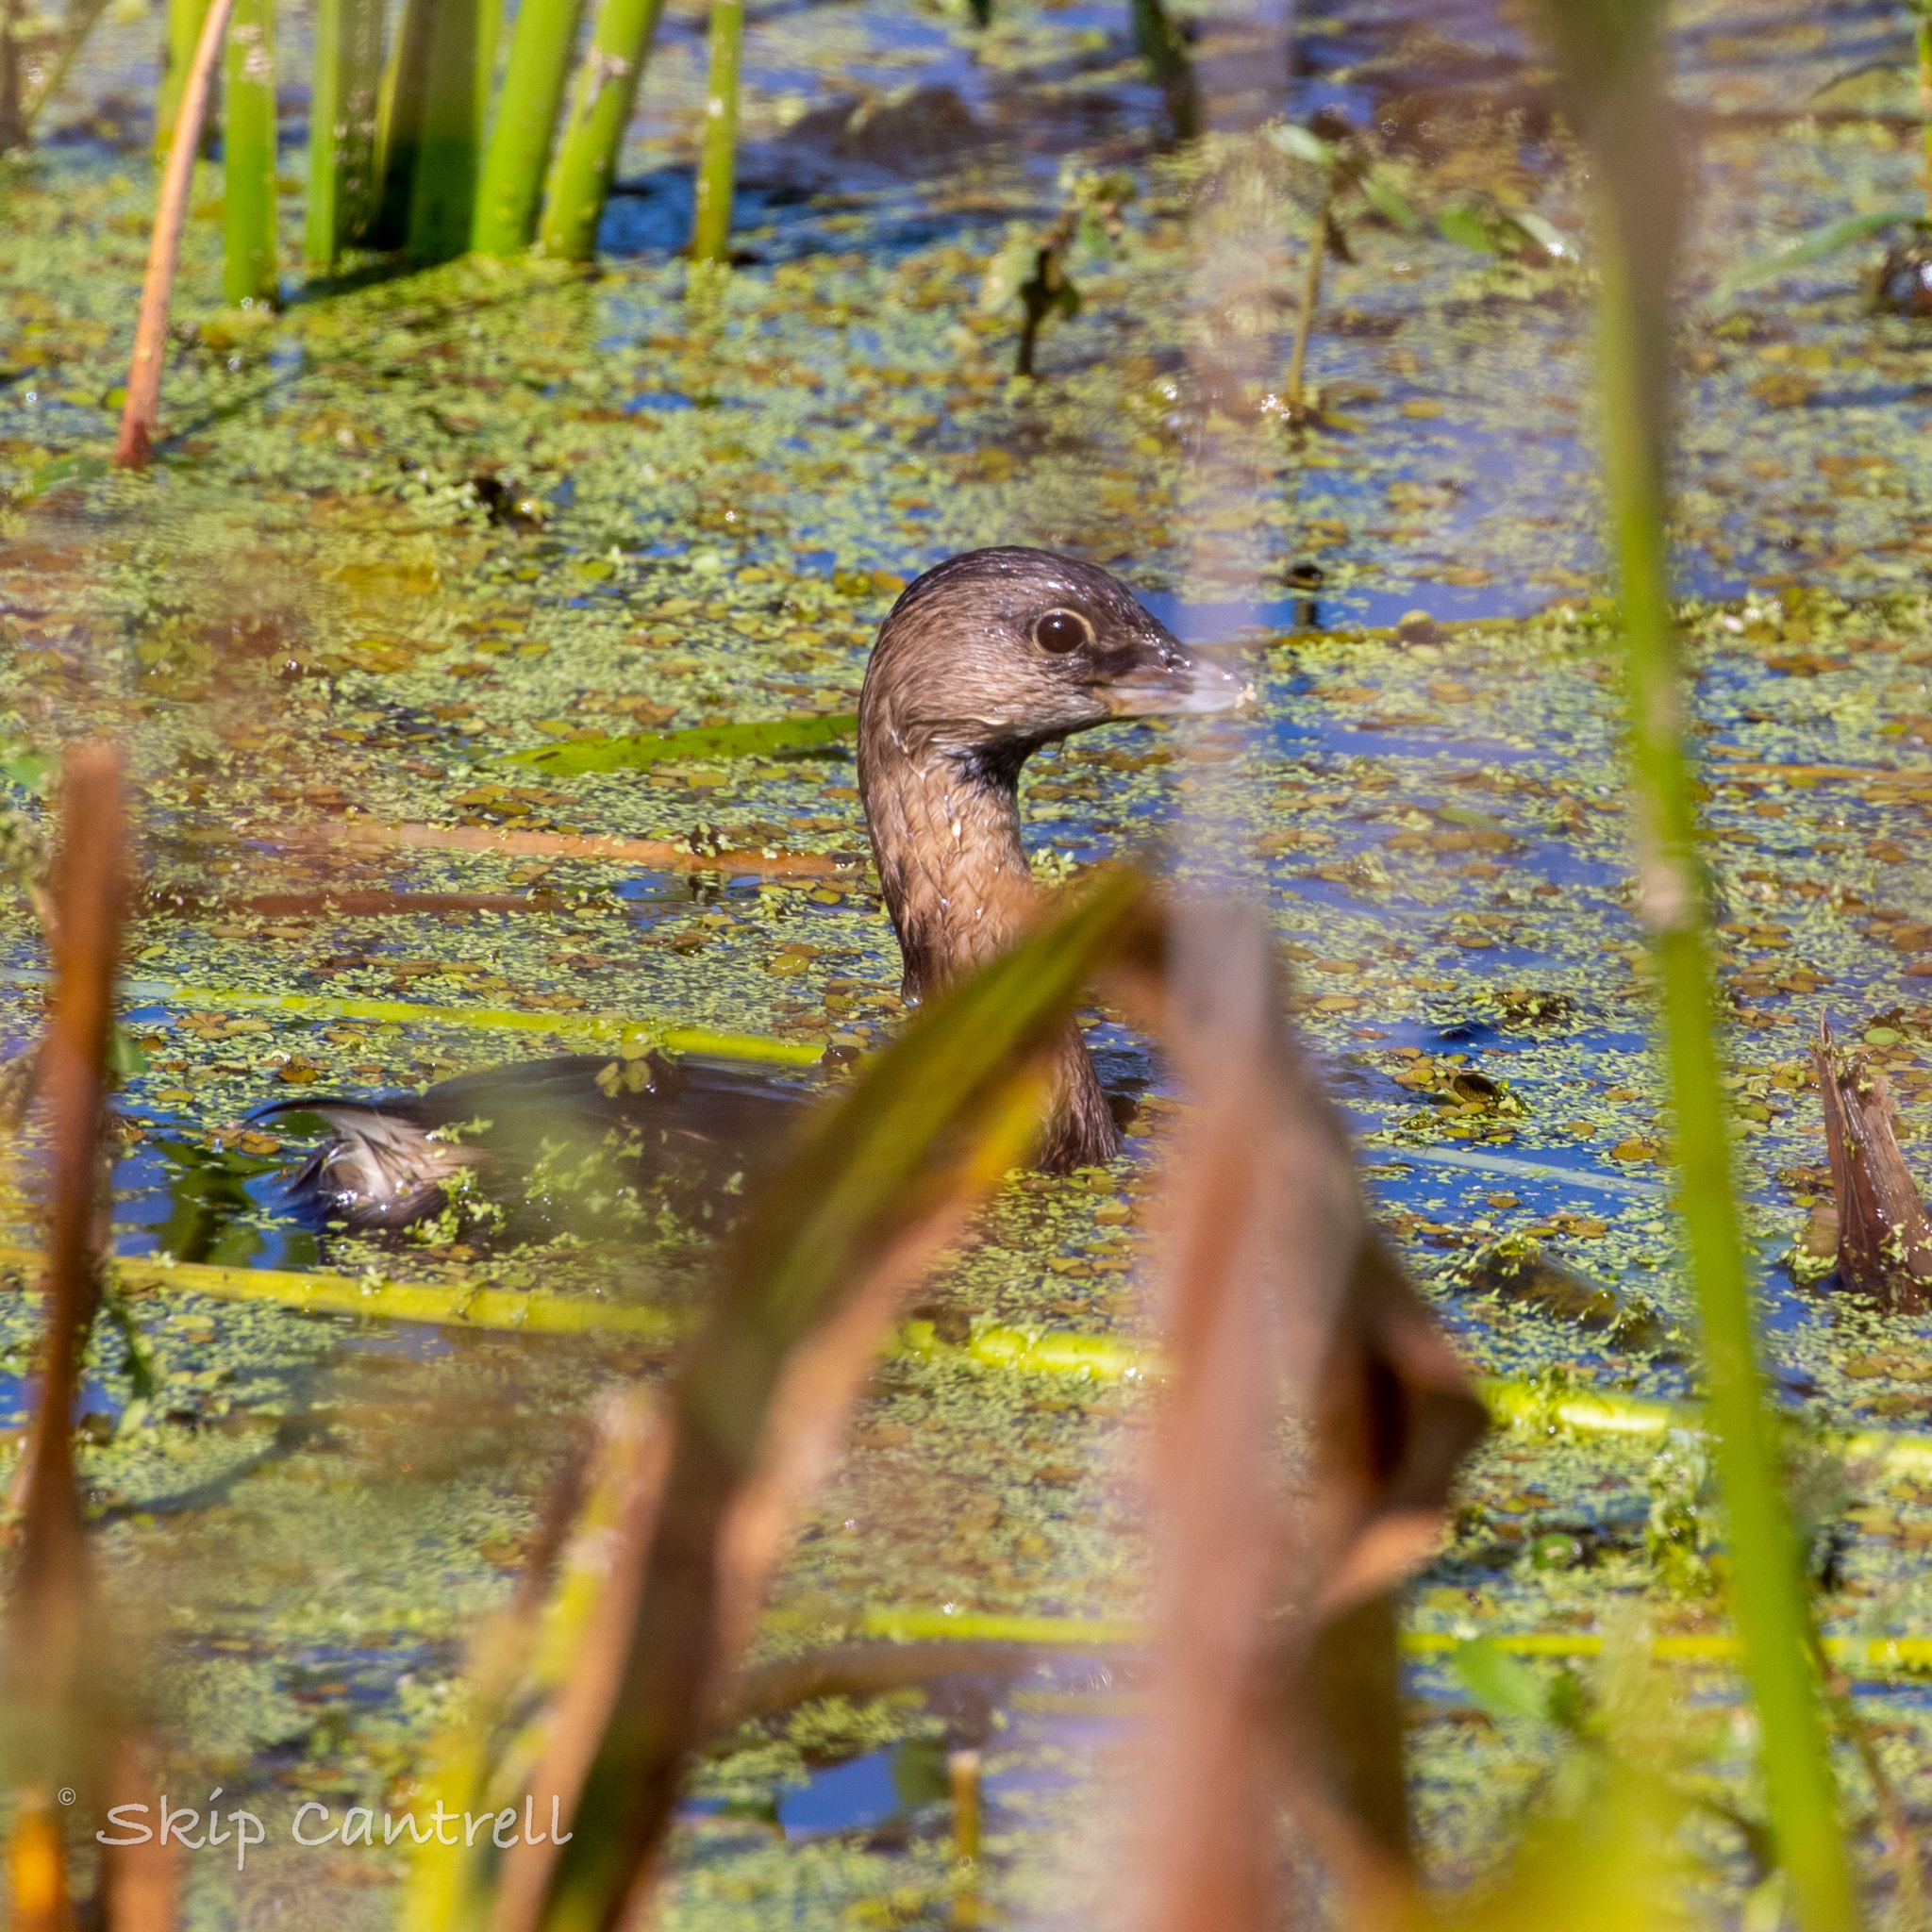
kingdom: Animalia
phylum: Chordata
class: Aves
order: Podicipediformes
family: Podicipedidae
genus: Podilymbus
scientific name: Podilymbus podiceps
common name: Pied-billed grebe
